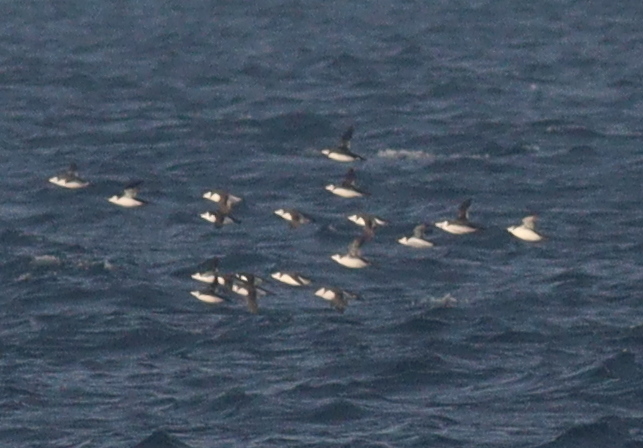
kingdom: Animalia
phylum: Chordata
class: Aves
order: Charadriiformes
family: Alcidae
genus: Alca
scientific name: Alca torda
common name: Razorbill
